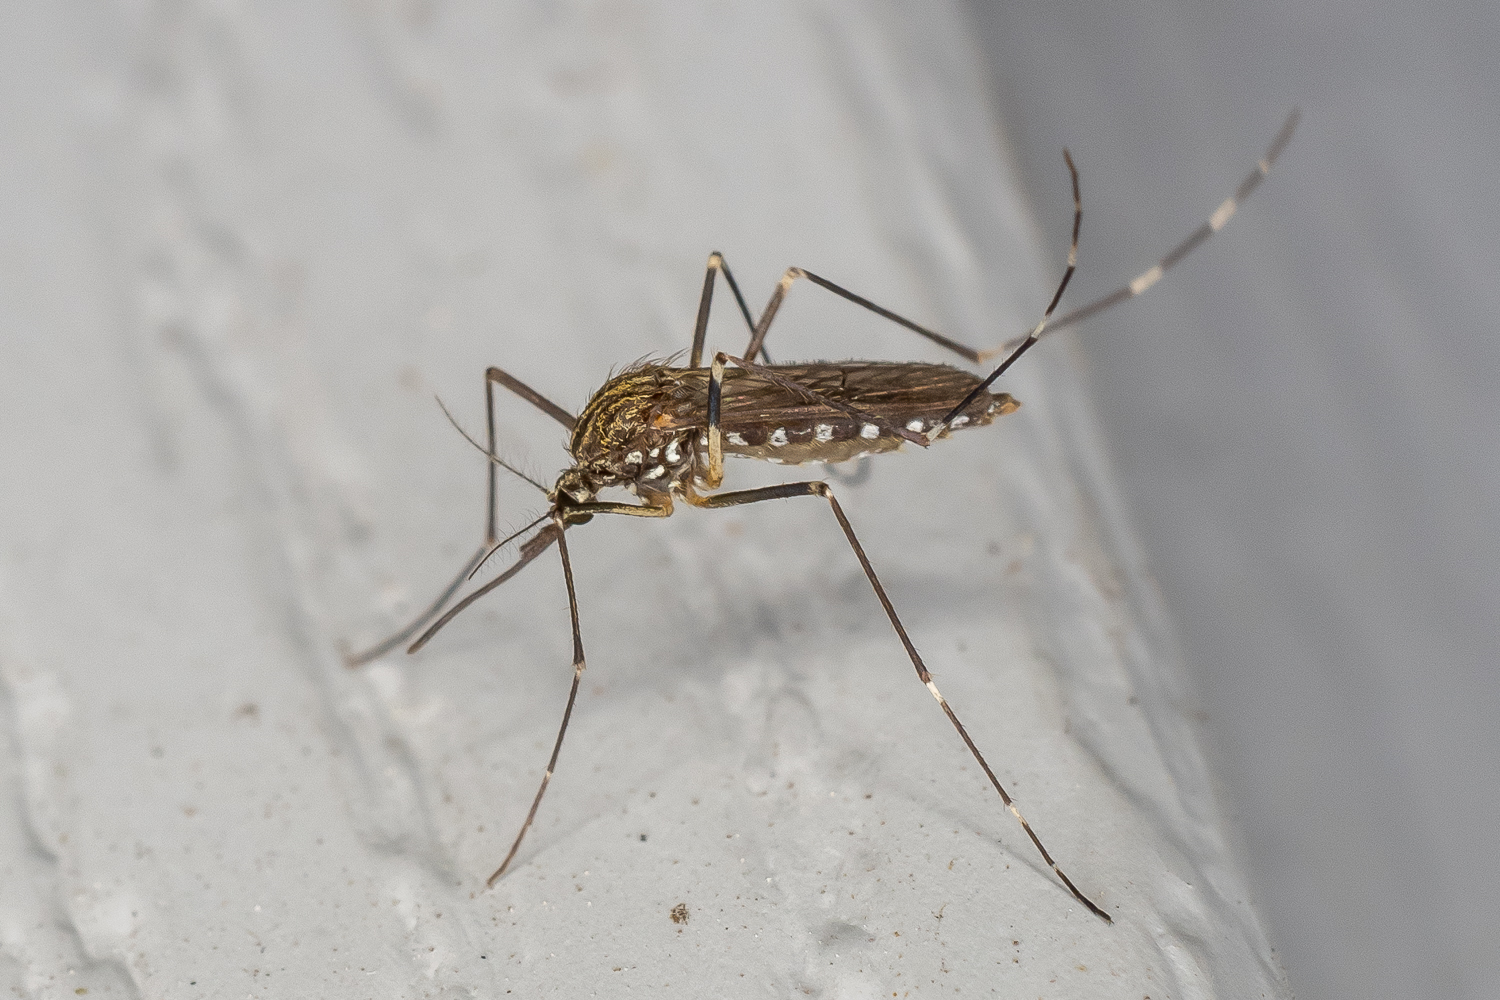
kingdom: Animalia
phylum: Arthropoda
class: Insecta
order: Diptera
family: Culicidae
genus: Aedes
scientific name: Aedes japonicus
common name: Asian bush mosquito
